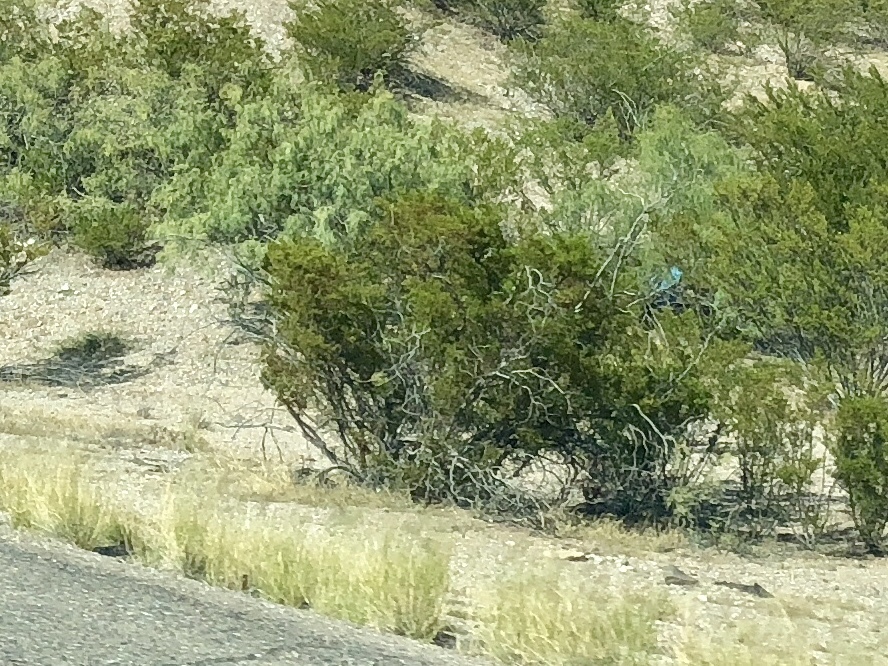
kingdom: Plantae
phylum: Tracheophyta
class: Magnoliopsida
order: Zygophyllales
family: Zygophyllaceae
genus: Larrea
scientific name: Larrea tridentata
